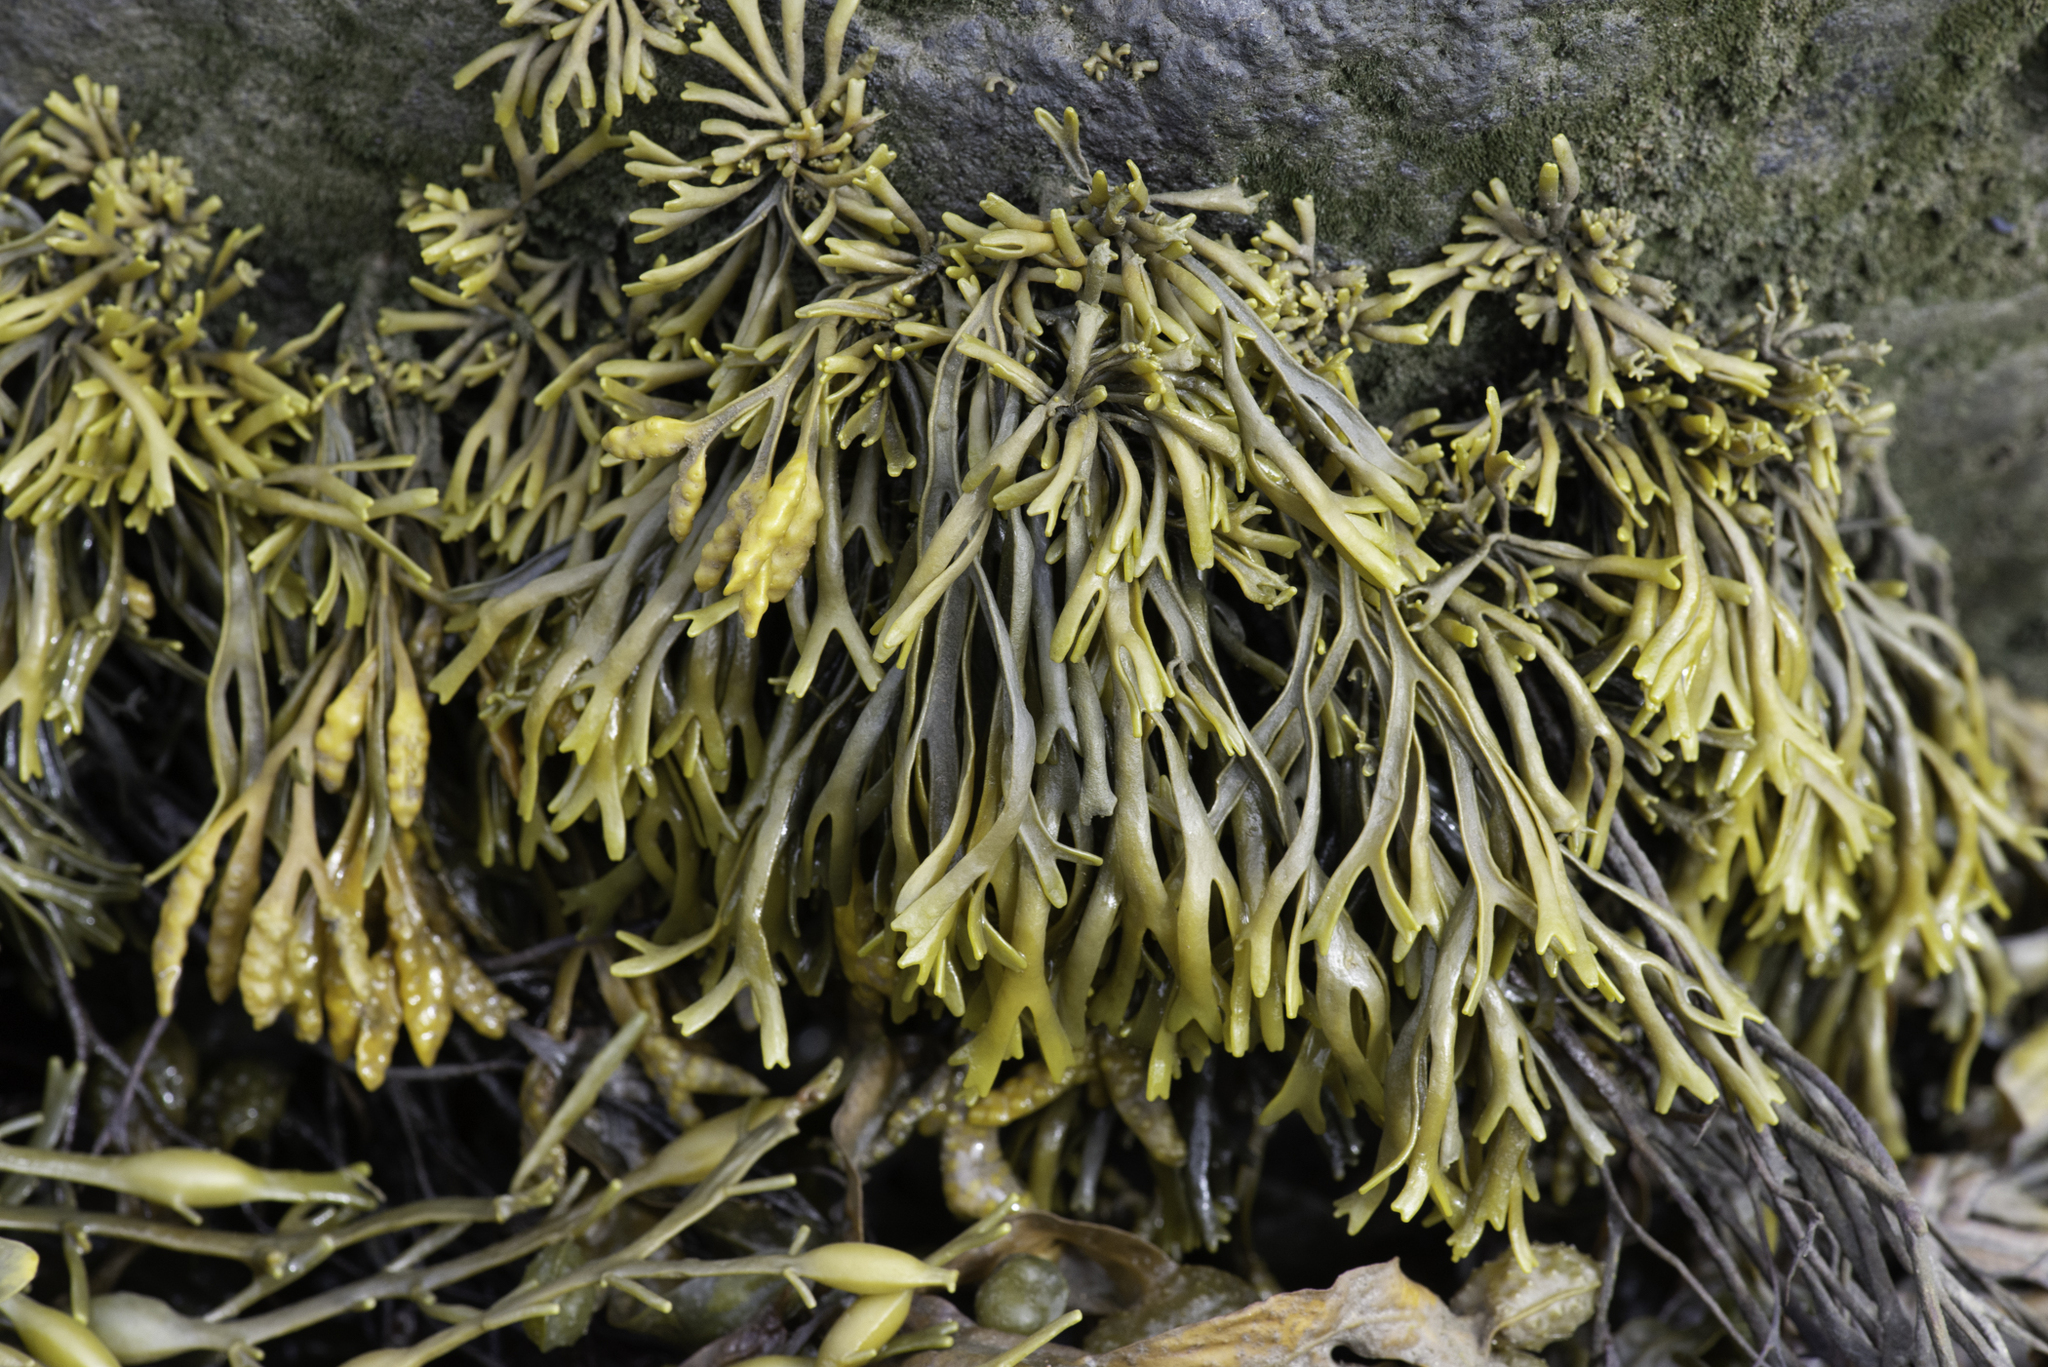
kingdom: Chromista
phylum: Ochrophyta
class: Phaeophyceae
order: Fucales
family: Fucaceae
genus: Pelvetia
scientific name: Pelvetia canaliculata
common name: Channelled wrack
